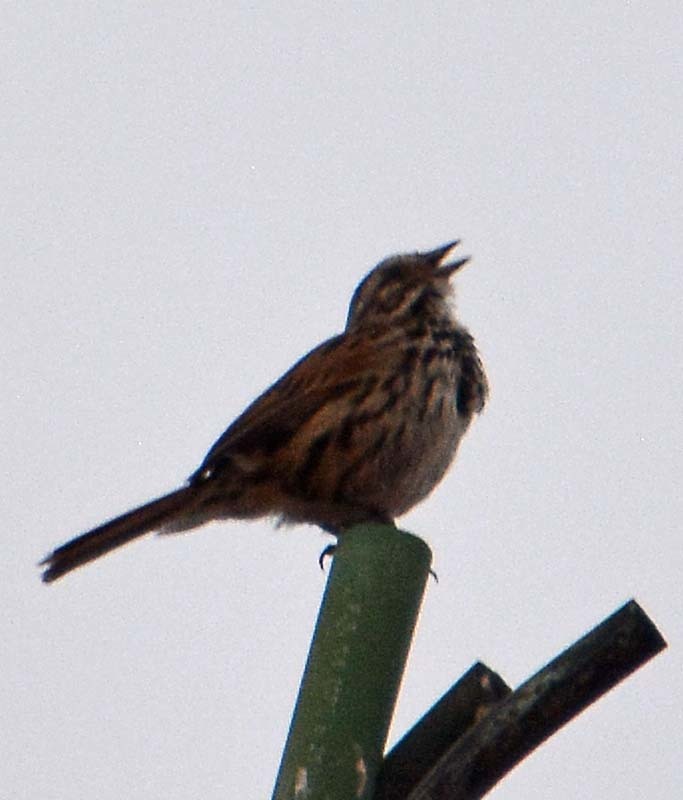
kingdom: Animalia
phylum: Chordata
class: Aves
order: Passeriformes
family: Passerellidae
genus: Melospiza
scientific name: Melospiza melodia
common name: Song sparrow
